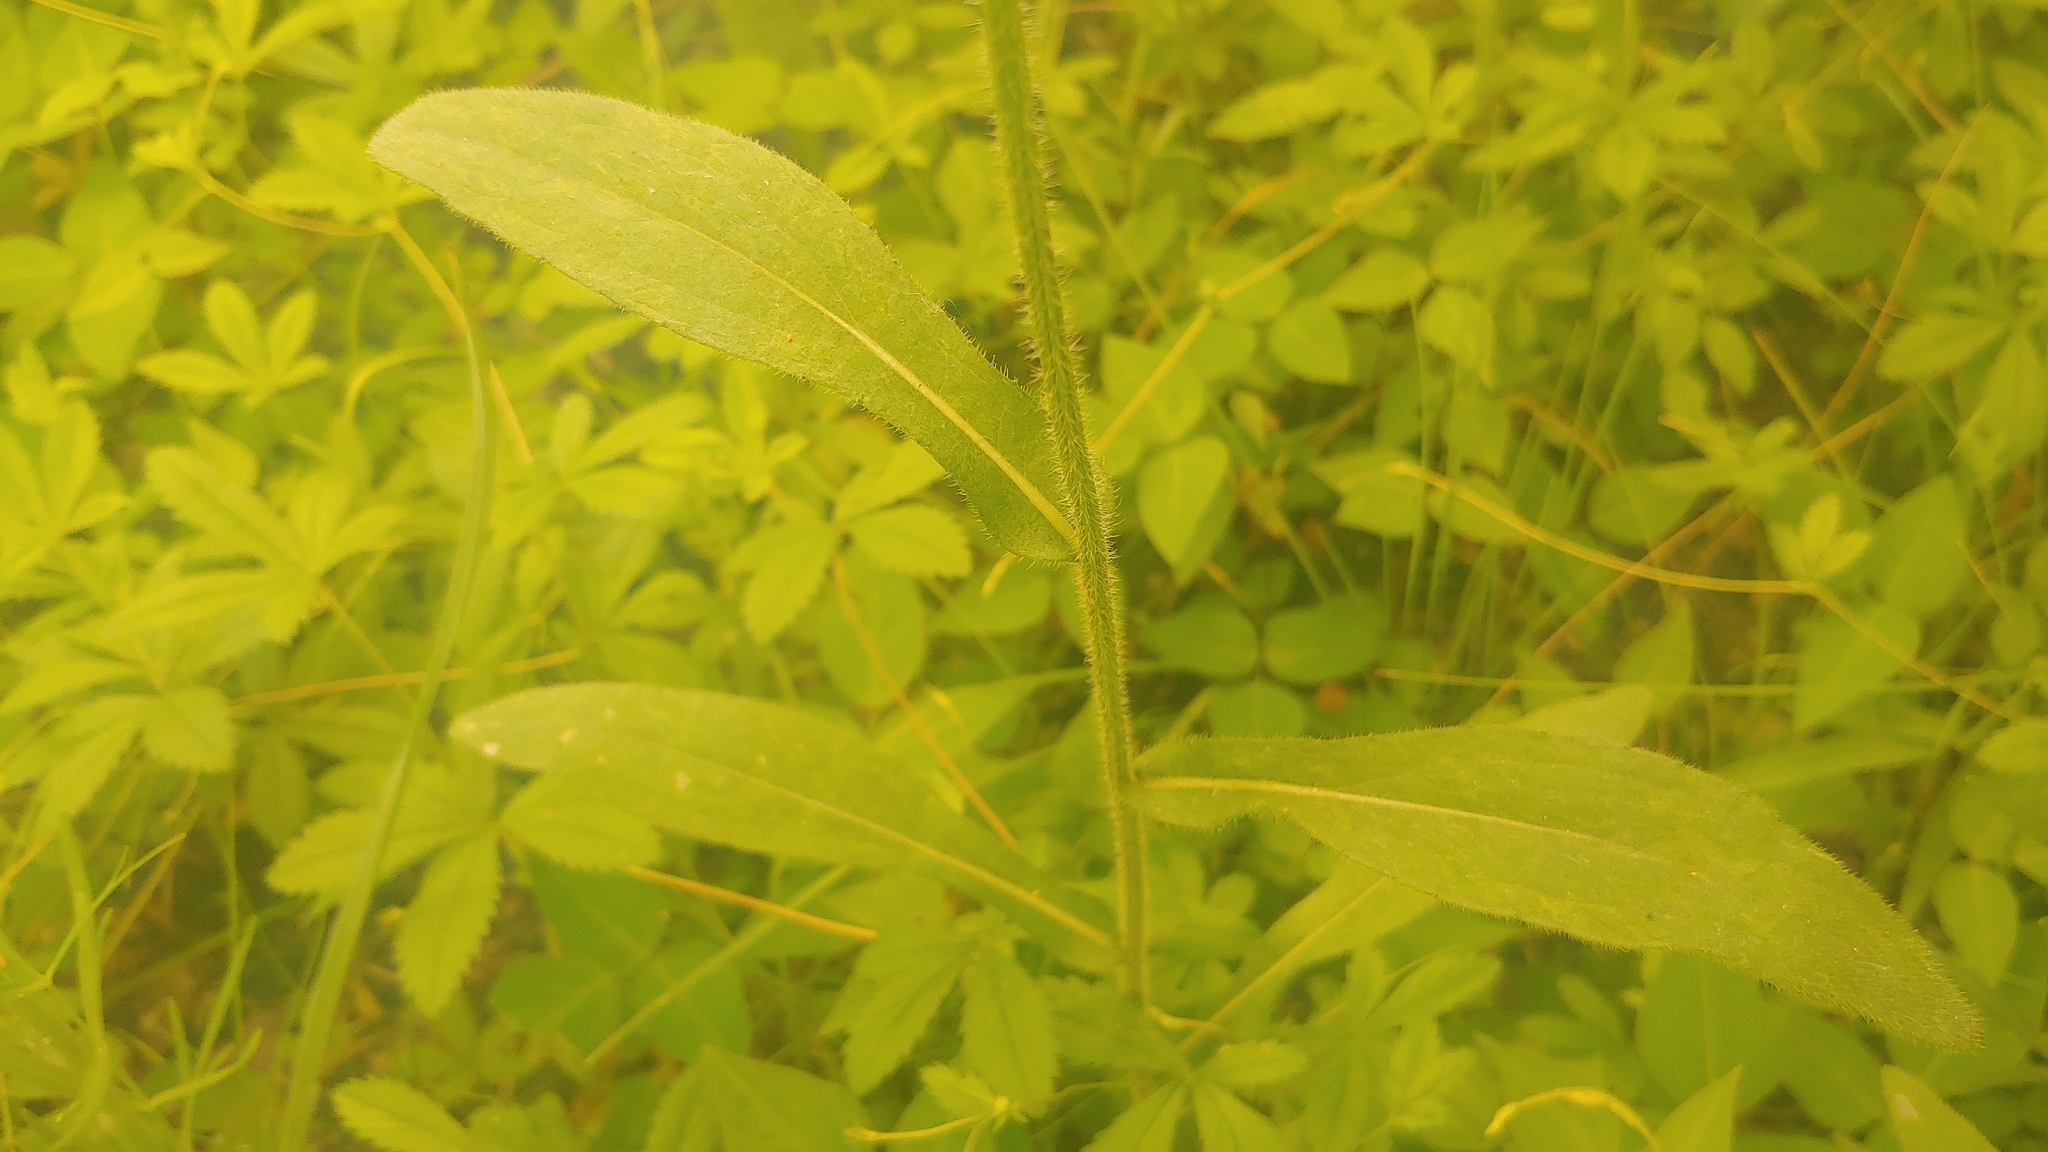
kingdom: Plantae
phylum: Tracheophyta
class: Magnoliopsida
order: Asterales
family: Asteraceae
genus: Rudbeckia
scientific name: Rudbeckia hirta
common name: Black-eyed-susan
